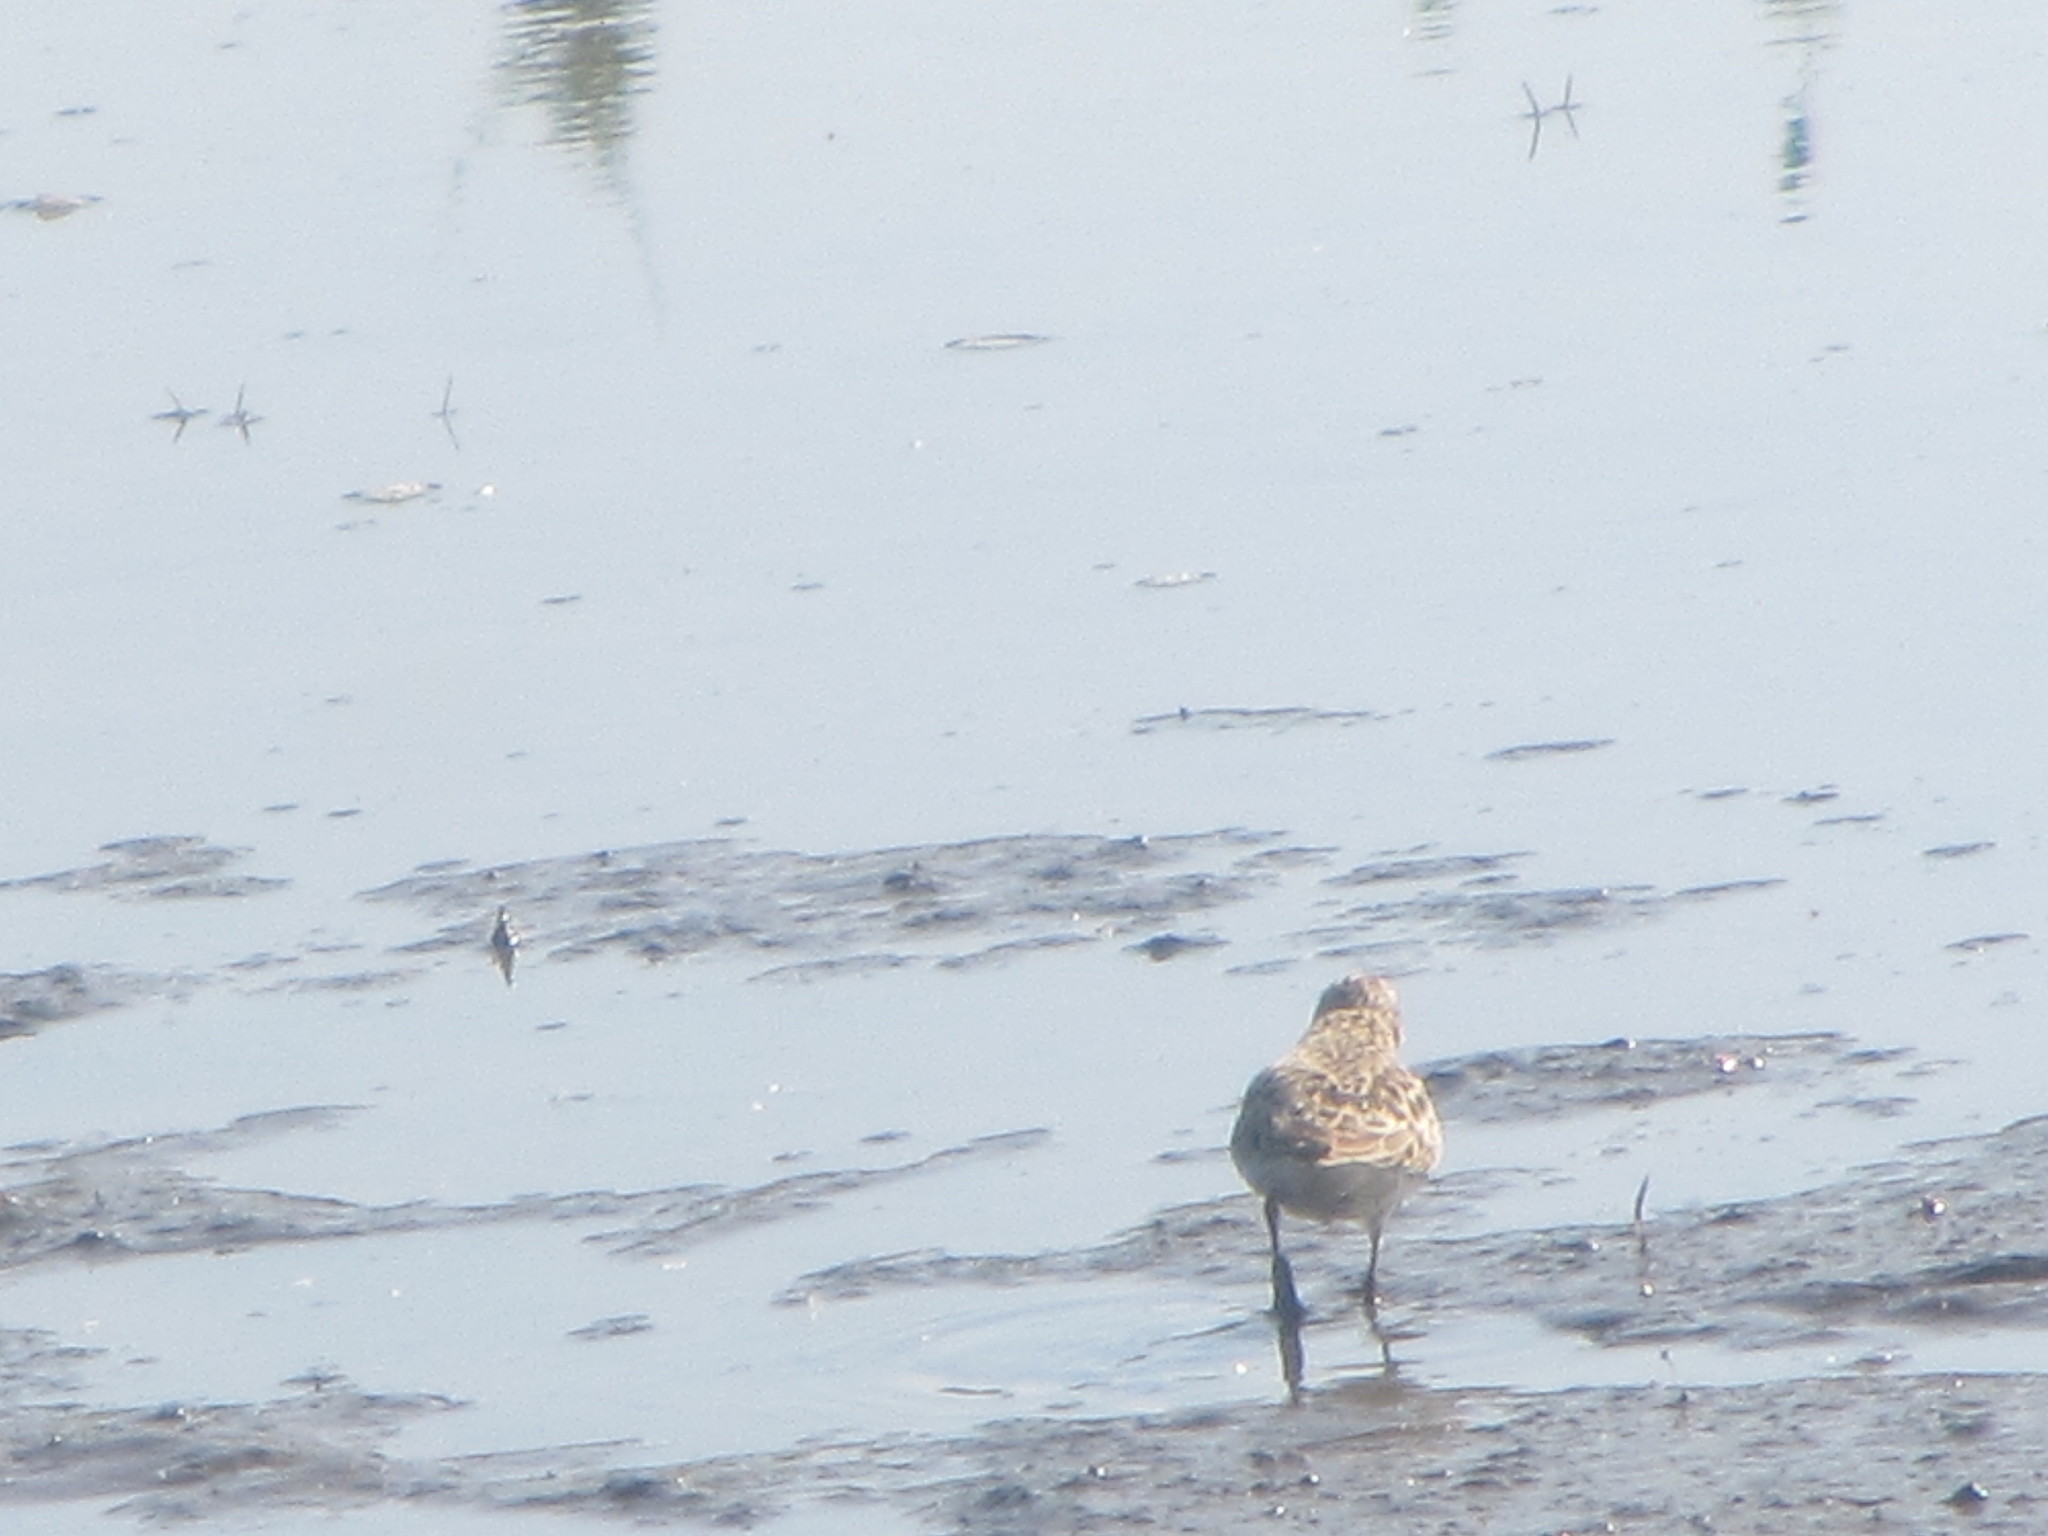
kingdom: Animalia
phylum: Chordata
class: Aves
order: Charadriiformes
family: Scolopacidae
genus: Calidris
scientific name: Calidris minutilla
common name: Least sandpiper
